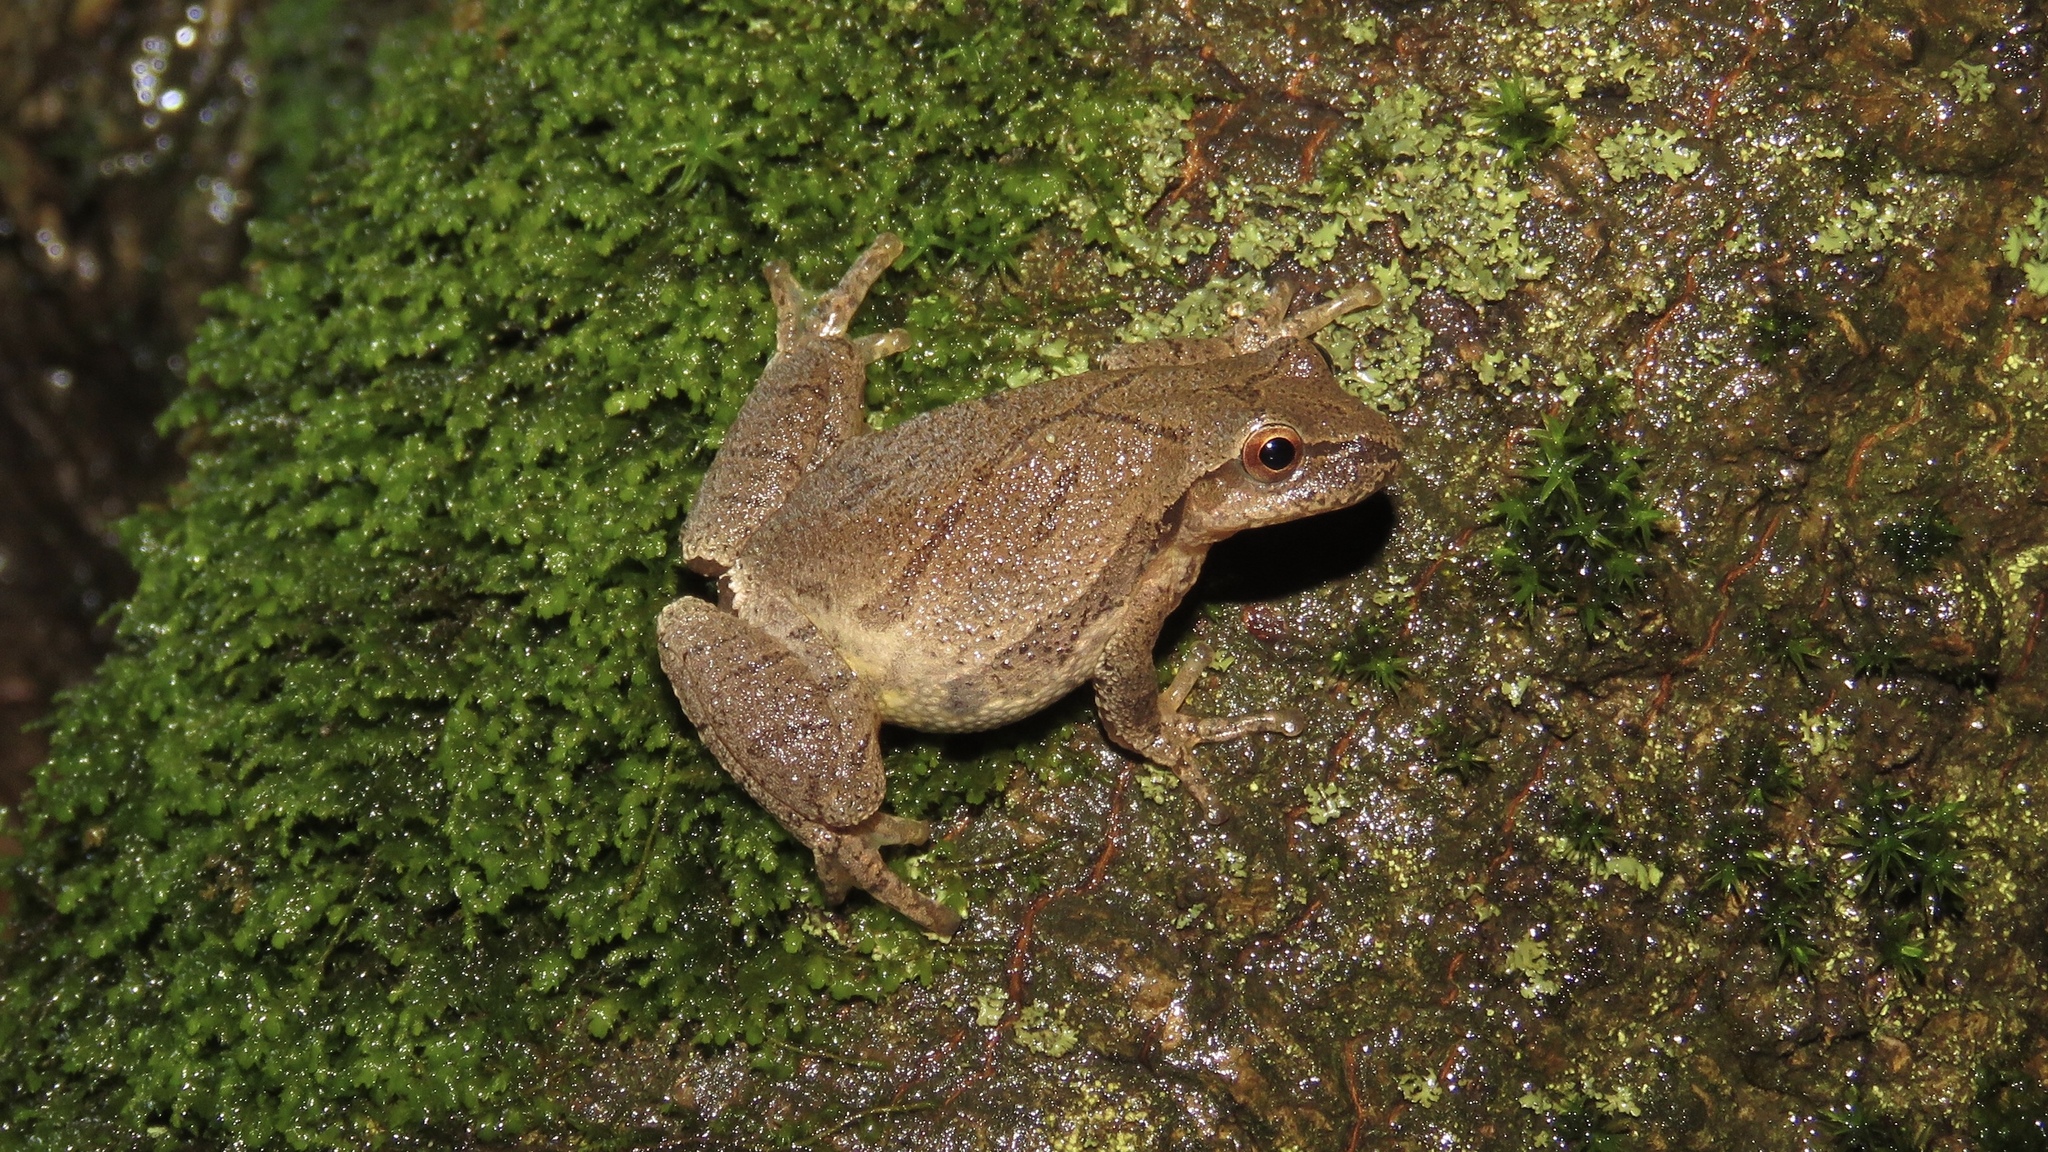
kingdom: Animalia
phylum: Chordata
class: Amphibia
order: Anura
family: Hylidae
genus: Pseudacris
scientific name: Pseudacris crucifer
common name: Spring peeper
